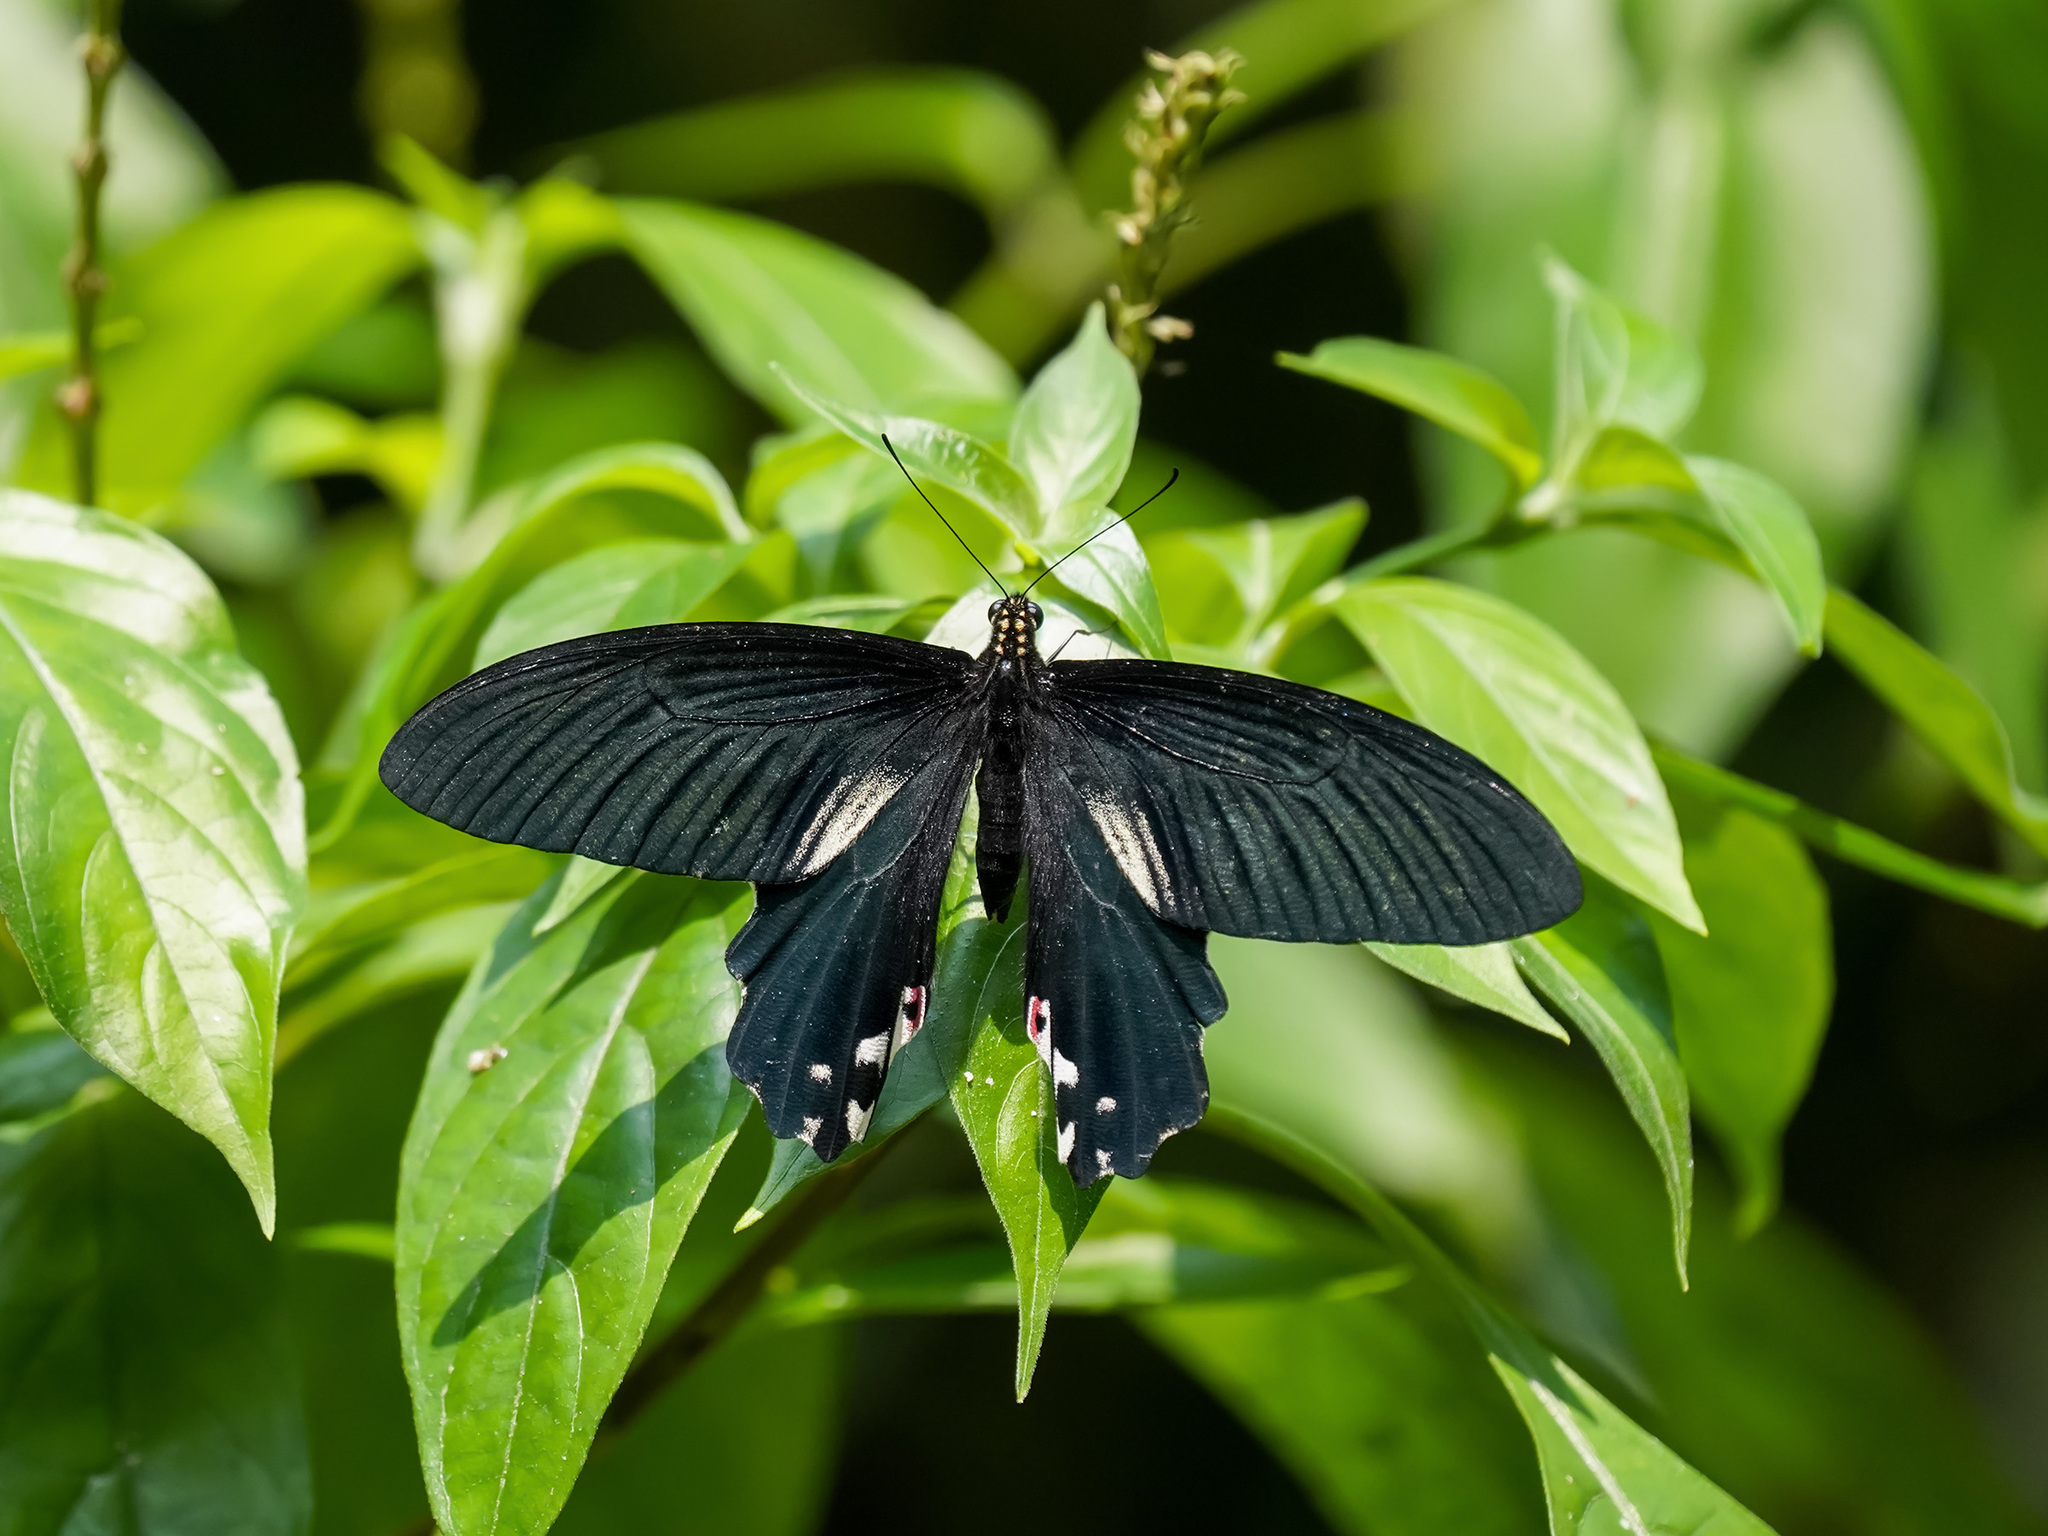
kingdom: Animalia
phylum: Arthropoda
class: Insecta
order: Lepidoptera
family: Papilionidae
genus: Papilio
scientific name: Papilio alcmenor
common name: Redbreast
